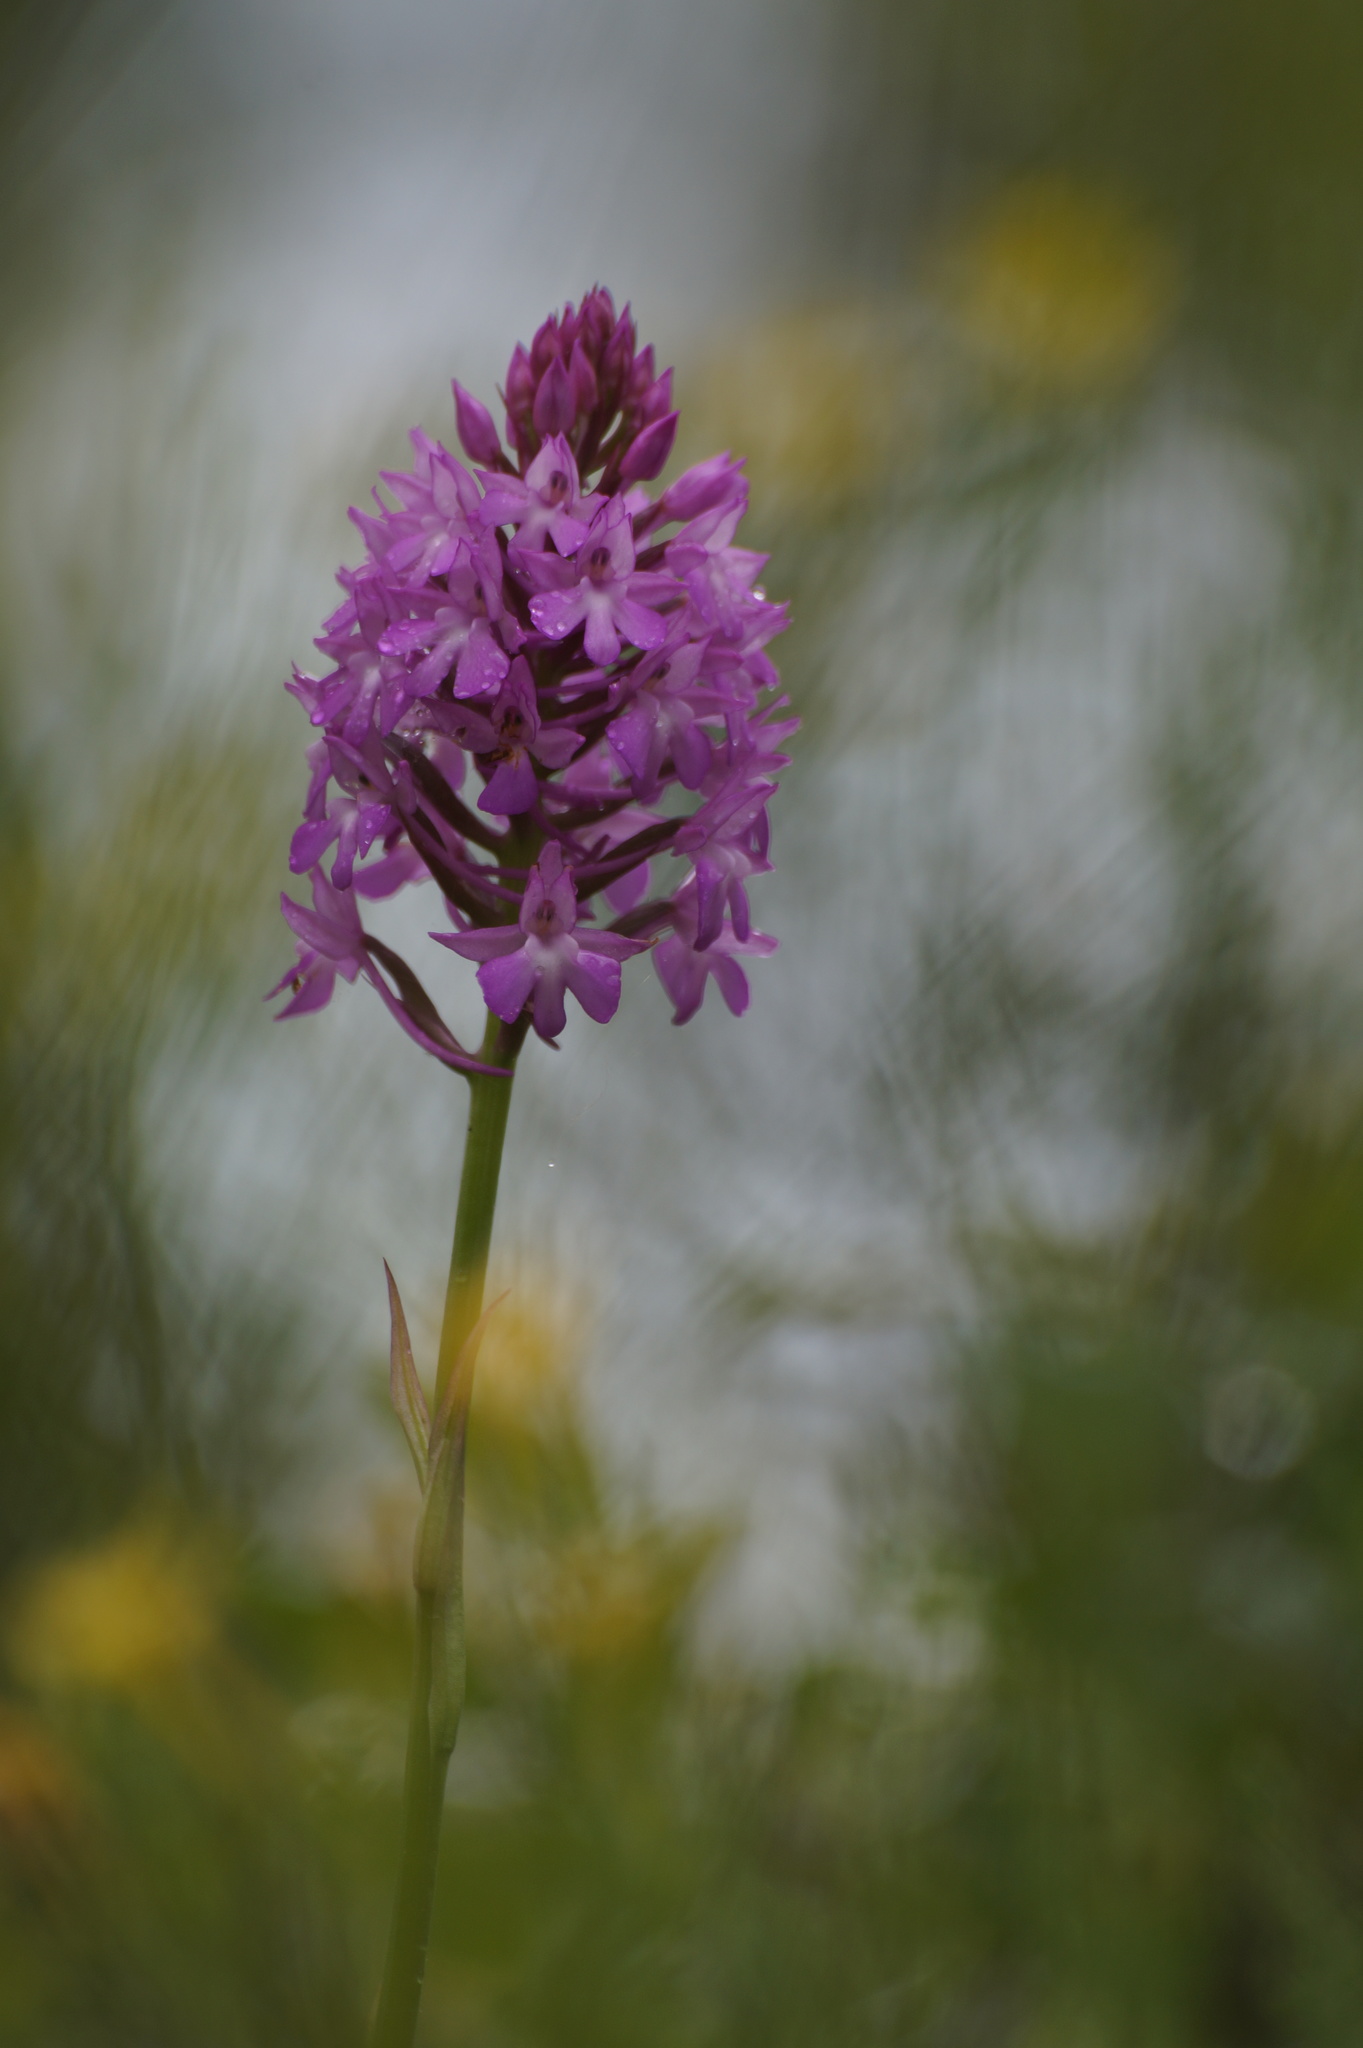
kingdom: Plantae
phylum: Tracheophyta
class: Liliopsida
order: Asparagales
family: Orchidaceae
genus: Anacamptis
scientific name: Anacamptis pyramidalis
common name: Pyramidal orchid
